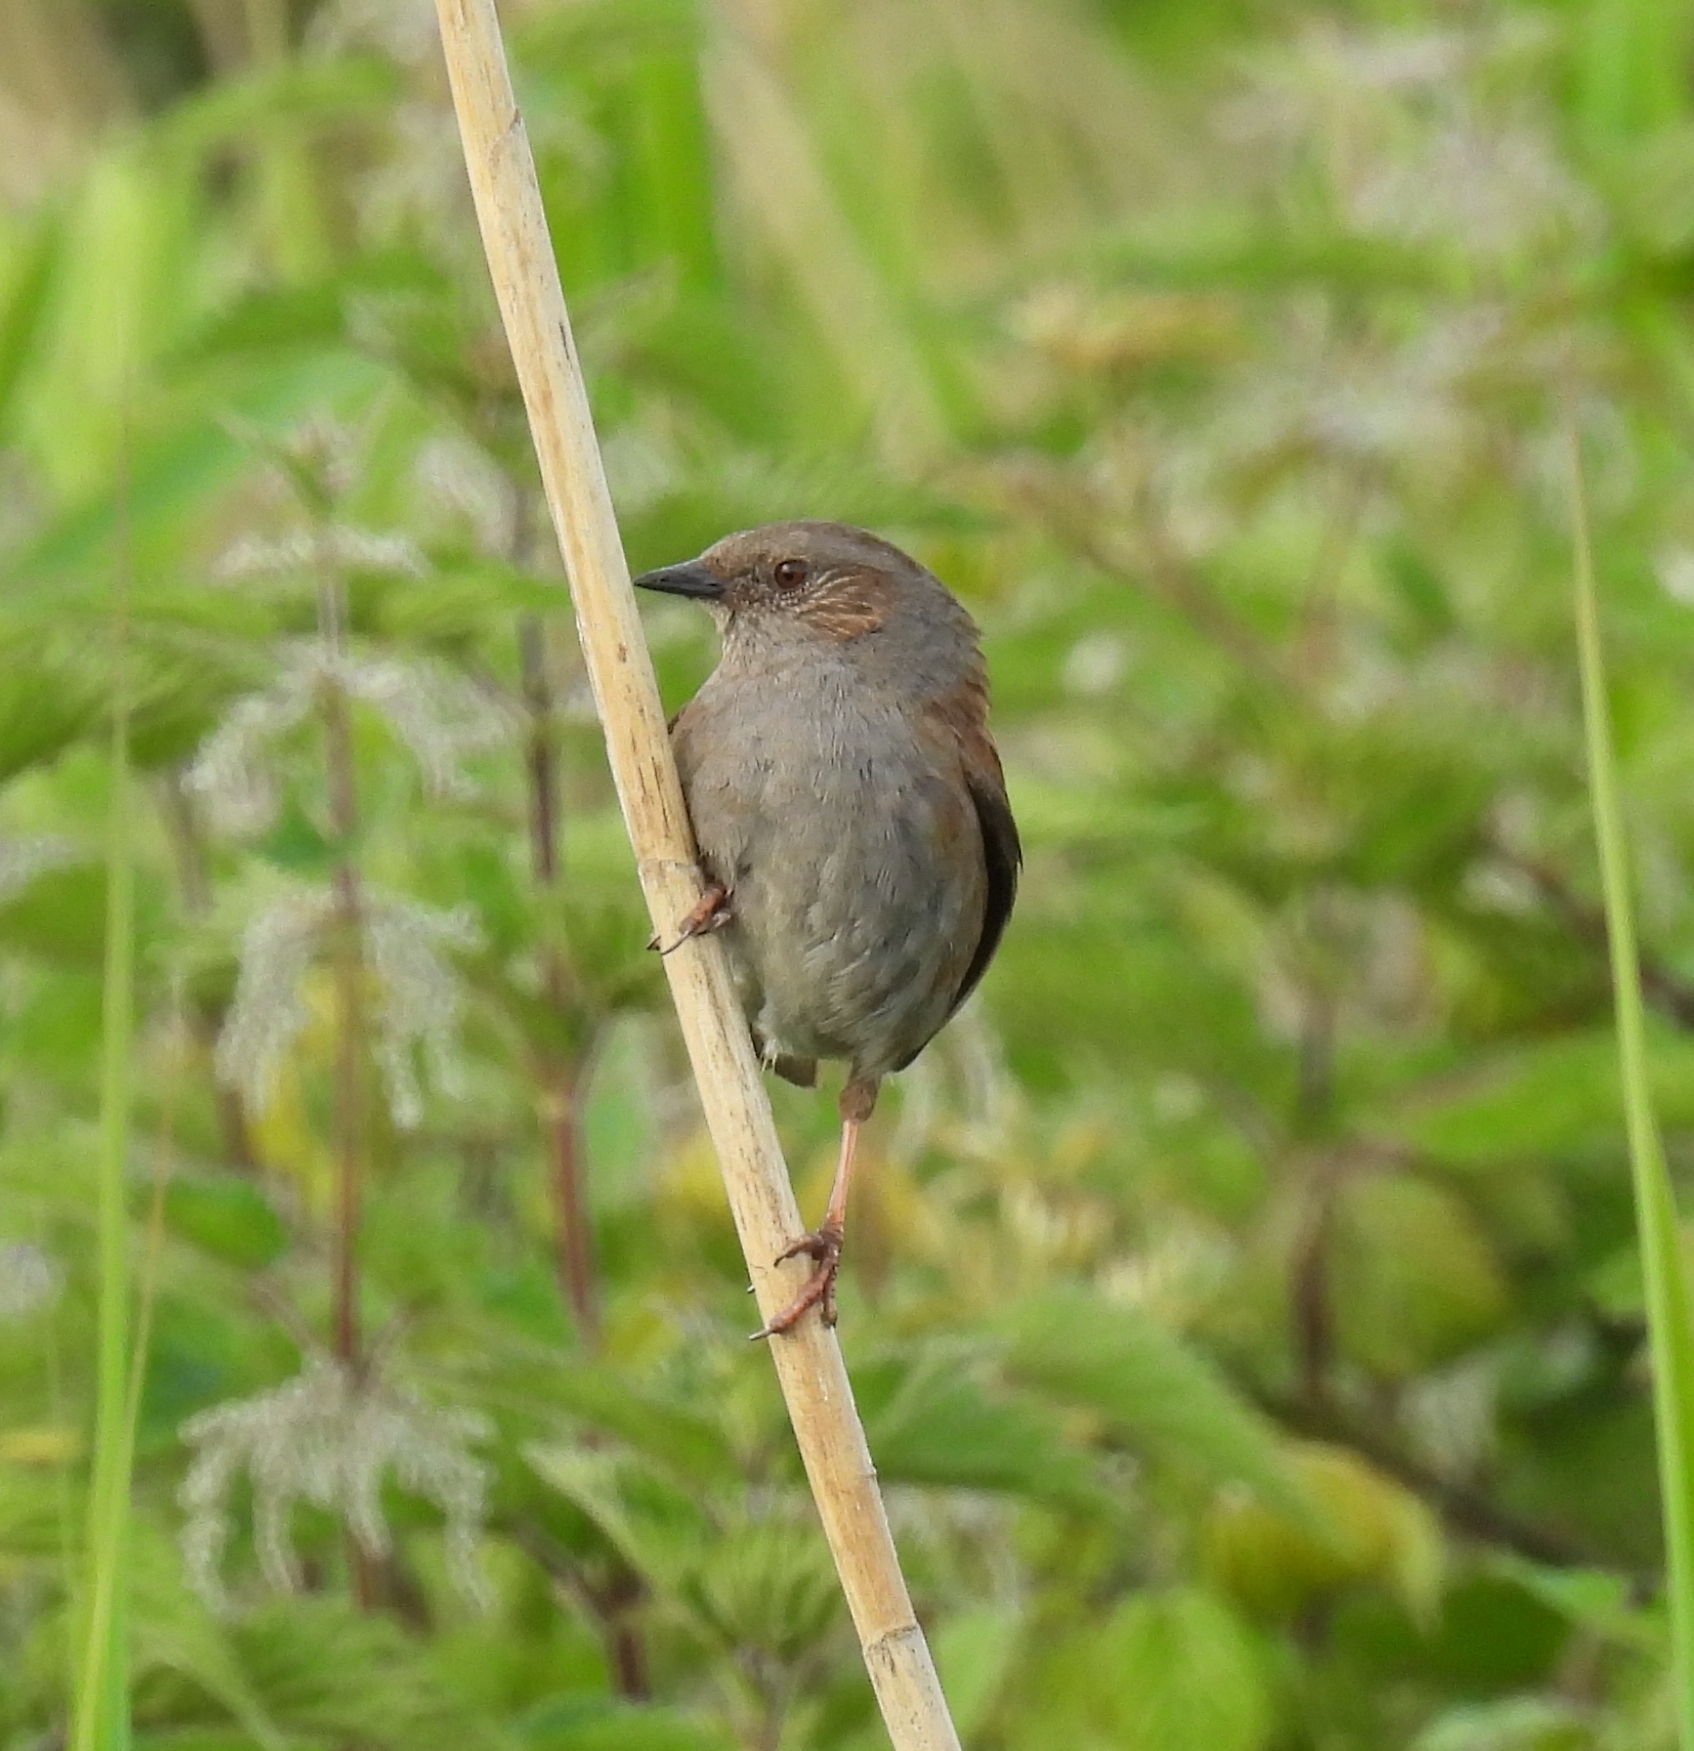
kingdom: Animalia
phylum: Chordata
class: Aves
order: Passeriformes
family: Prunellidae
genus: Prunella
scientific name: Prunella modularis
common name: Dunnock
